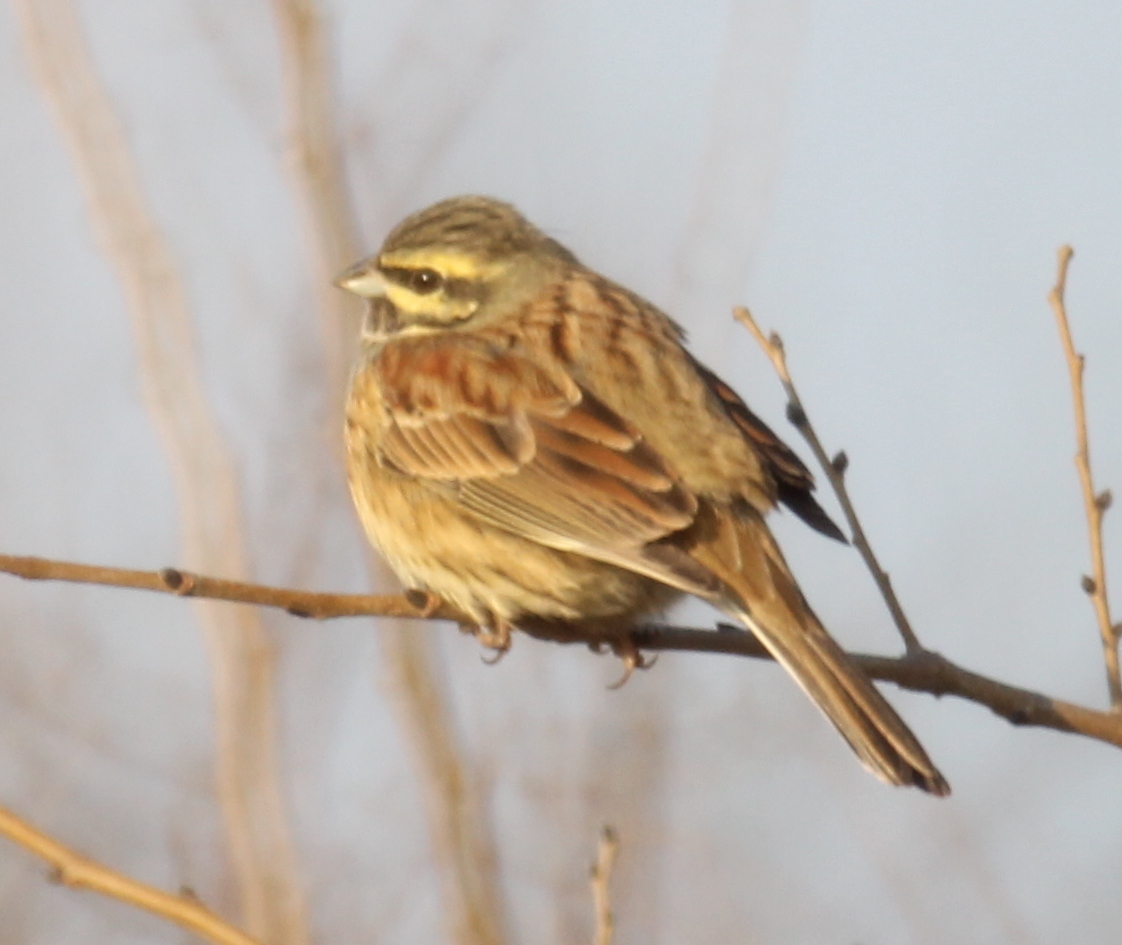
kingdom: Animalia
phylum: Chordata
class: Aves
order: Passeriformes
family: Emberizidae
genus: Emberiza
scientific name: Emberiza cirlus
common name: Cirl bunting
